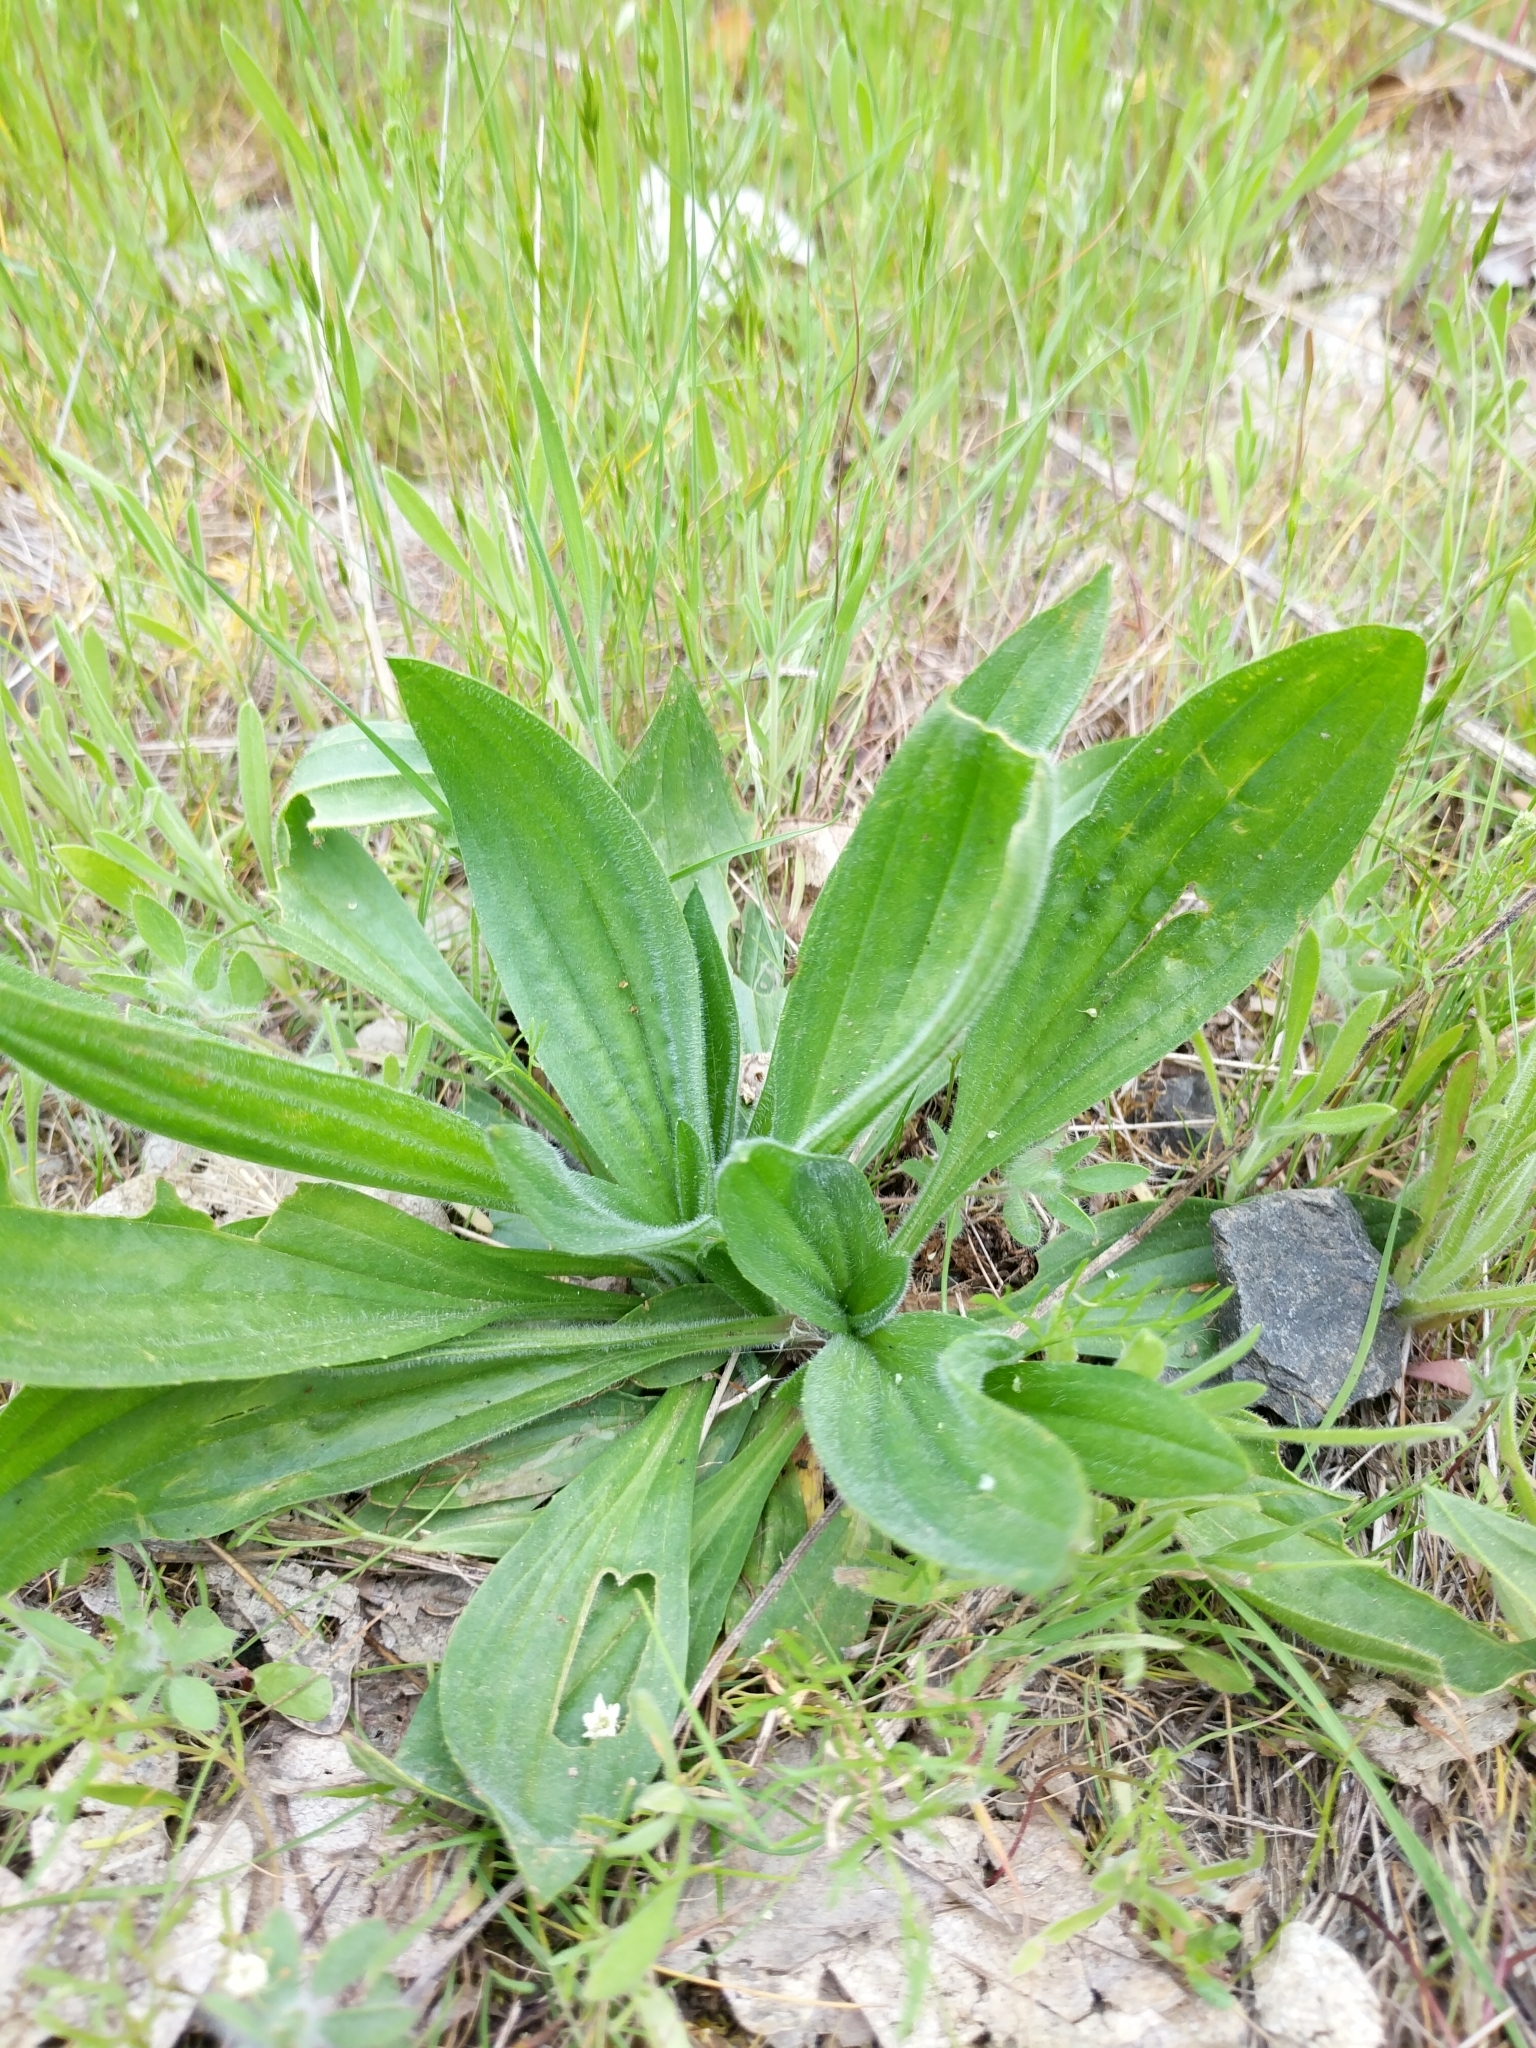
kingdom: Plantae
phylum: Tracheophyta
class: Magnoliopsida
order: Lamiales
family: Plantaginaceae
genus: Plantago
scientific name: Plantago lanceolata
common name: Ribwort plantain
